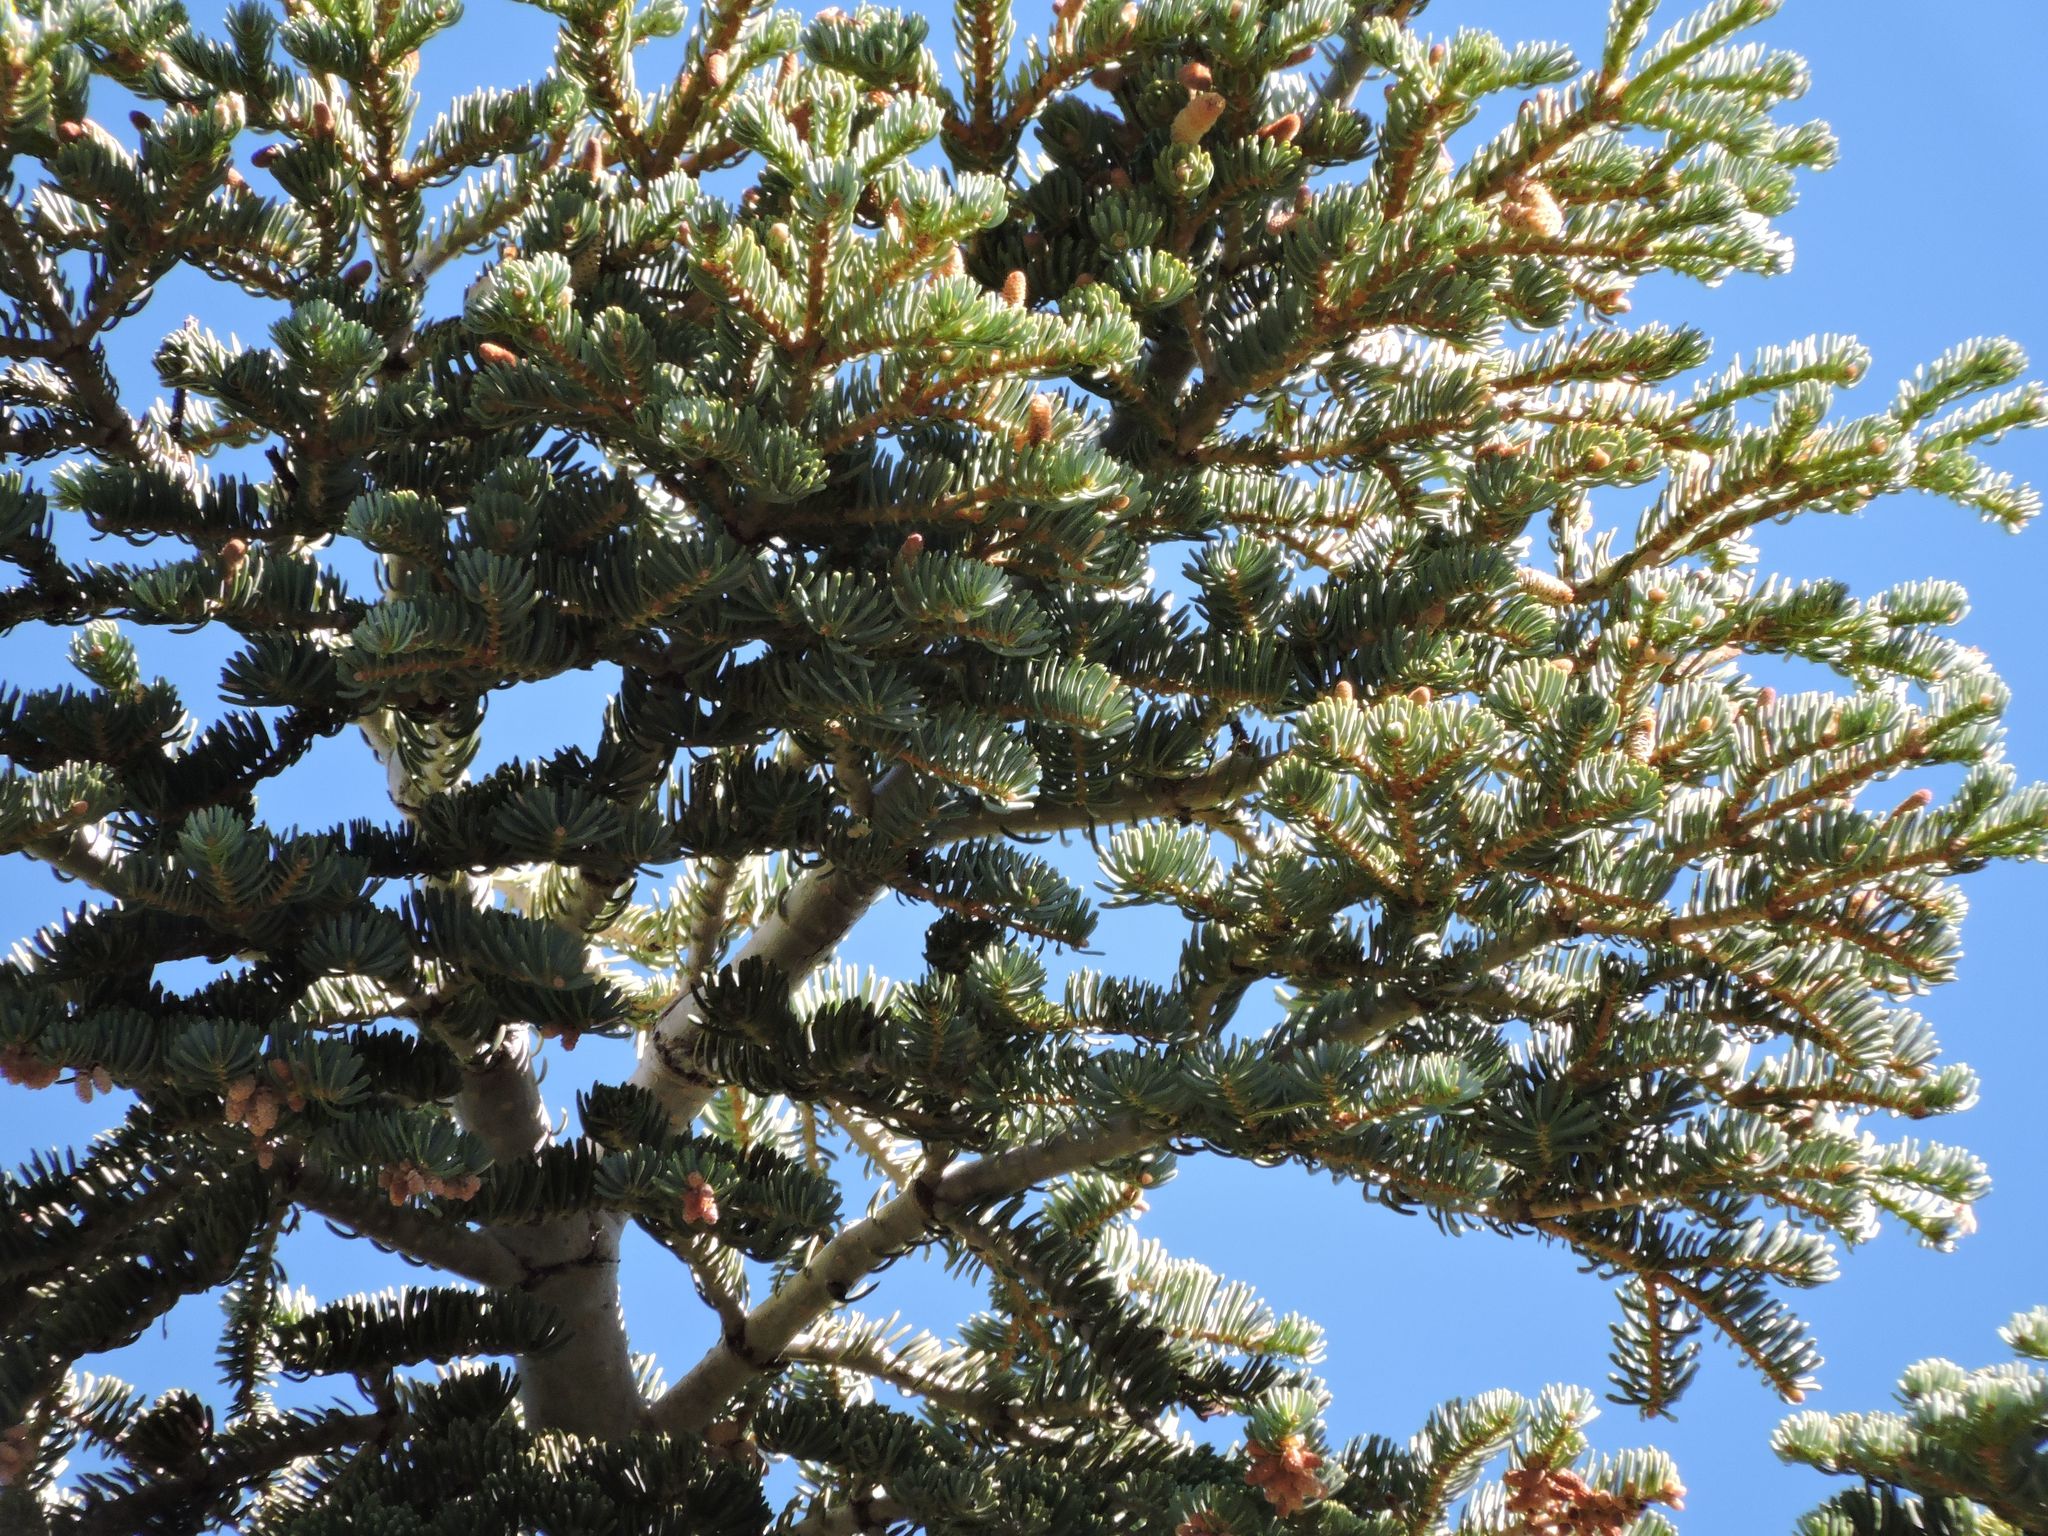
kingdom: Plantae
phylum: Tracheophyta
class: Pinopsida
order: Pinales
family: Pinaceae
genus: Abies
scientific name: Abies concolor
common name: Colorado fir
